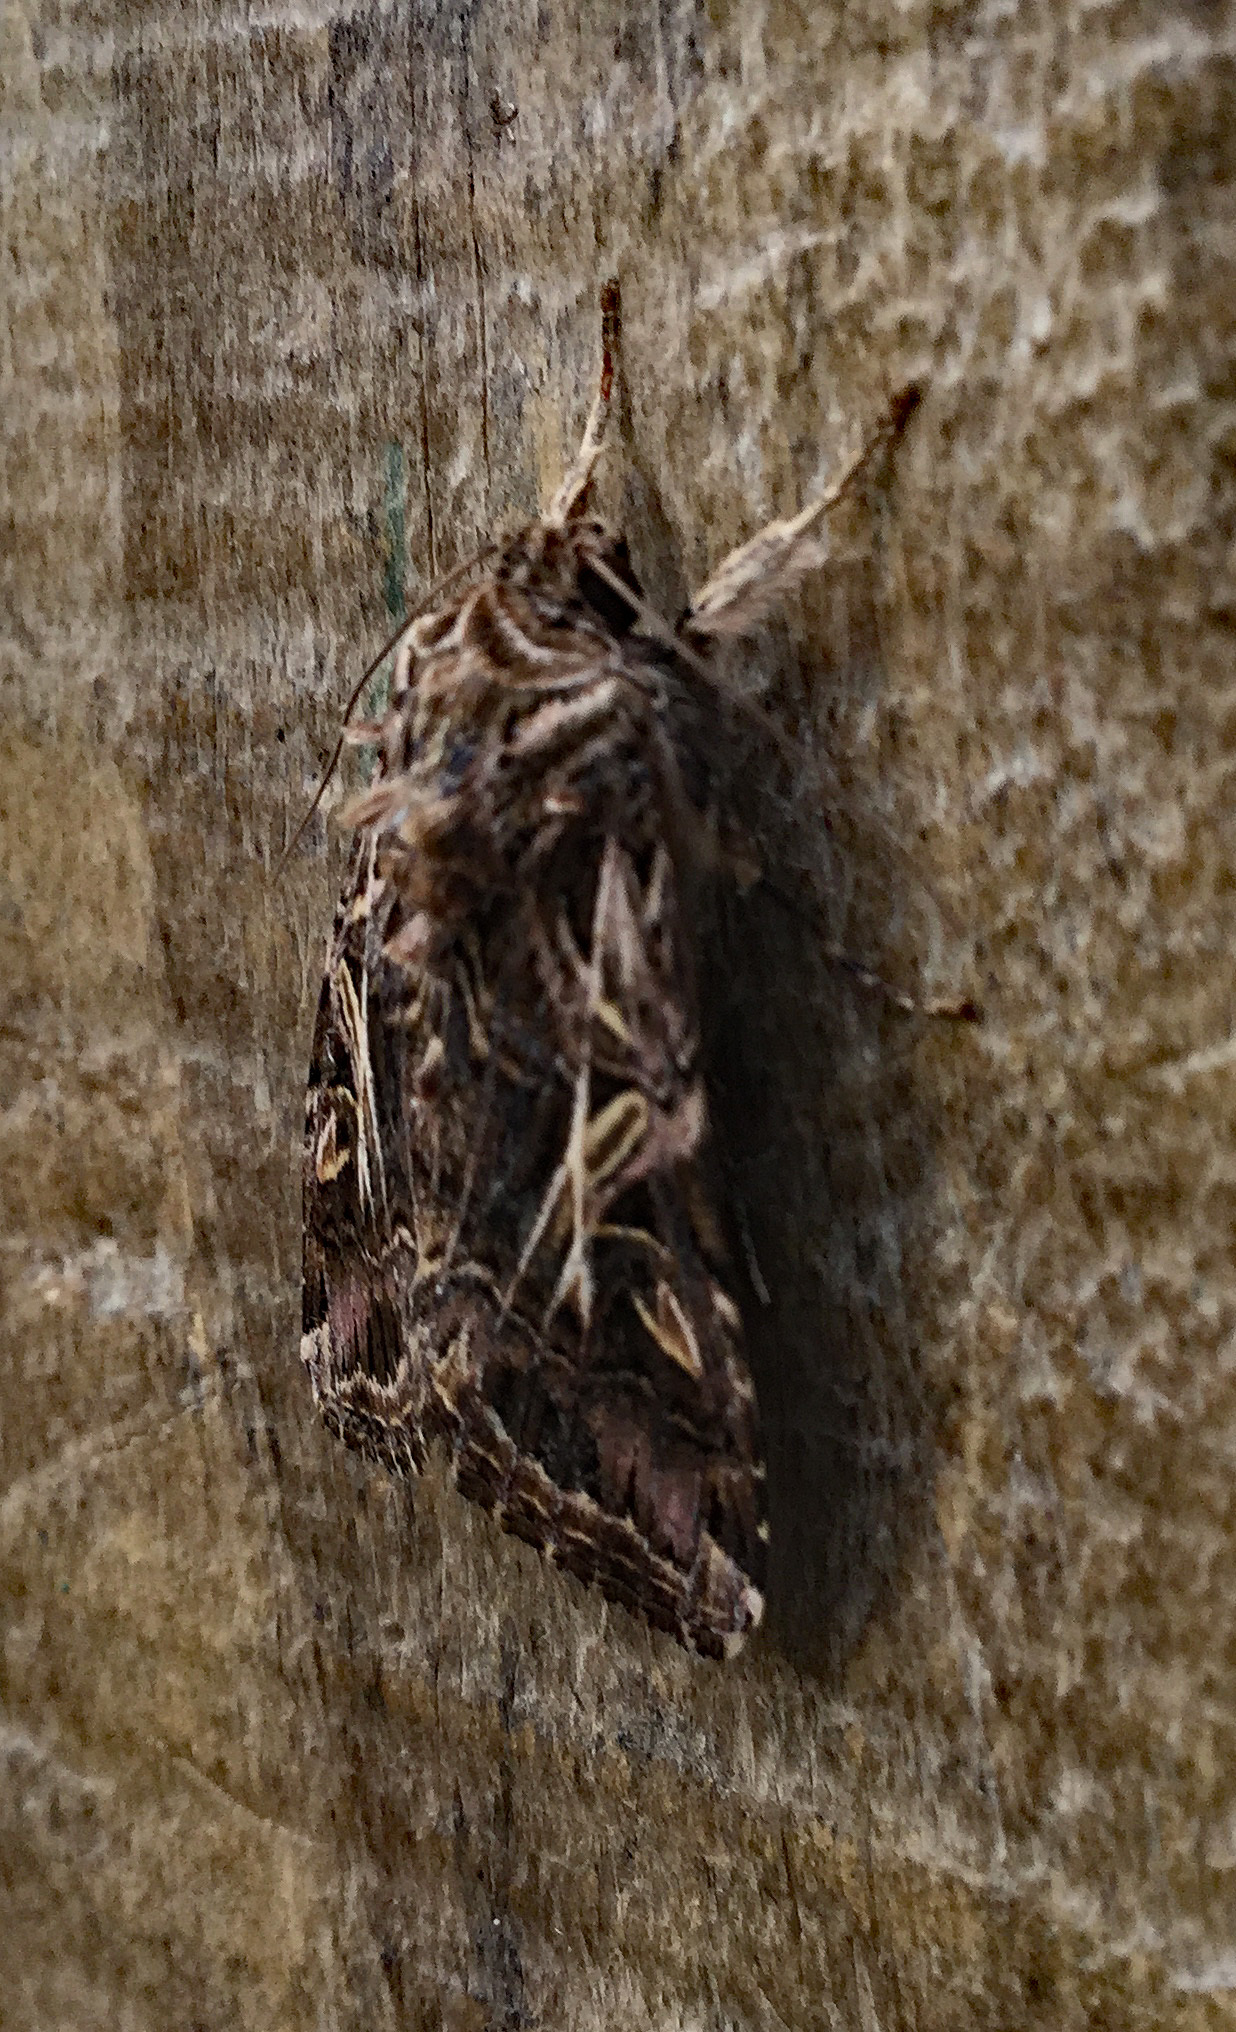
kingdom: Animalia
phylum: Arthropoda
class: Insecta
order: Lepidoptera
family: Noctuidae
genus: Spodoptera
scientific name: Spodoptera litura
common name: Asian cotton leafworm
